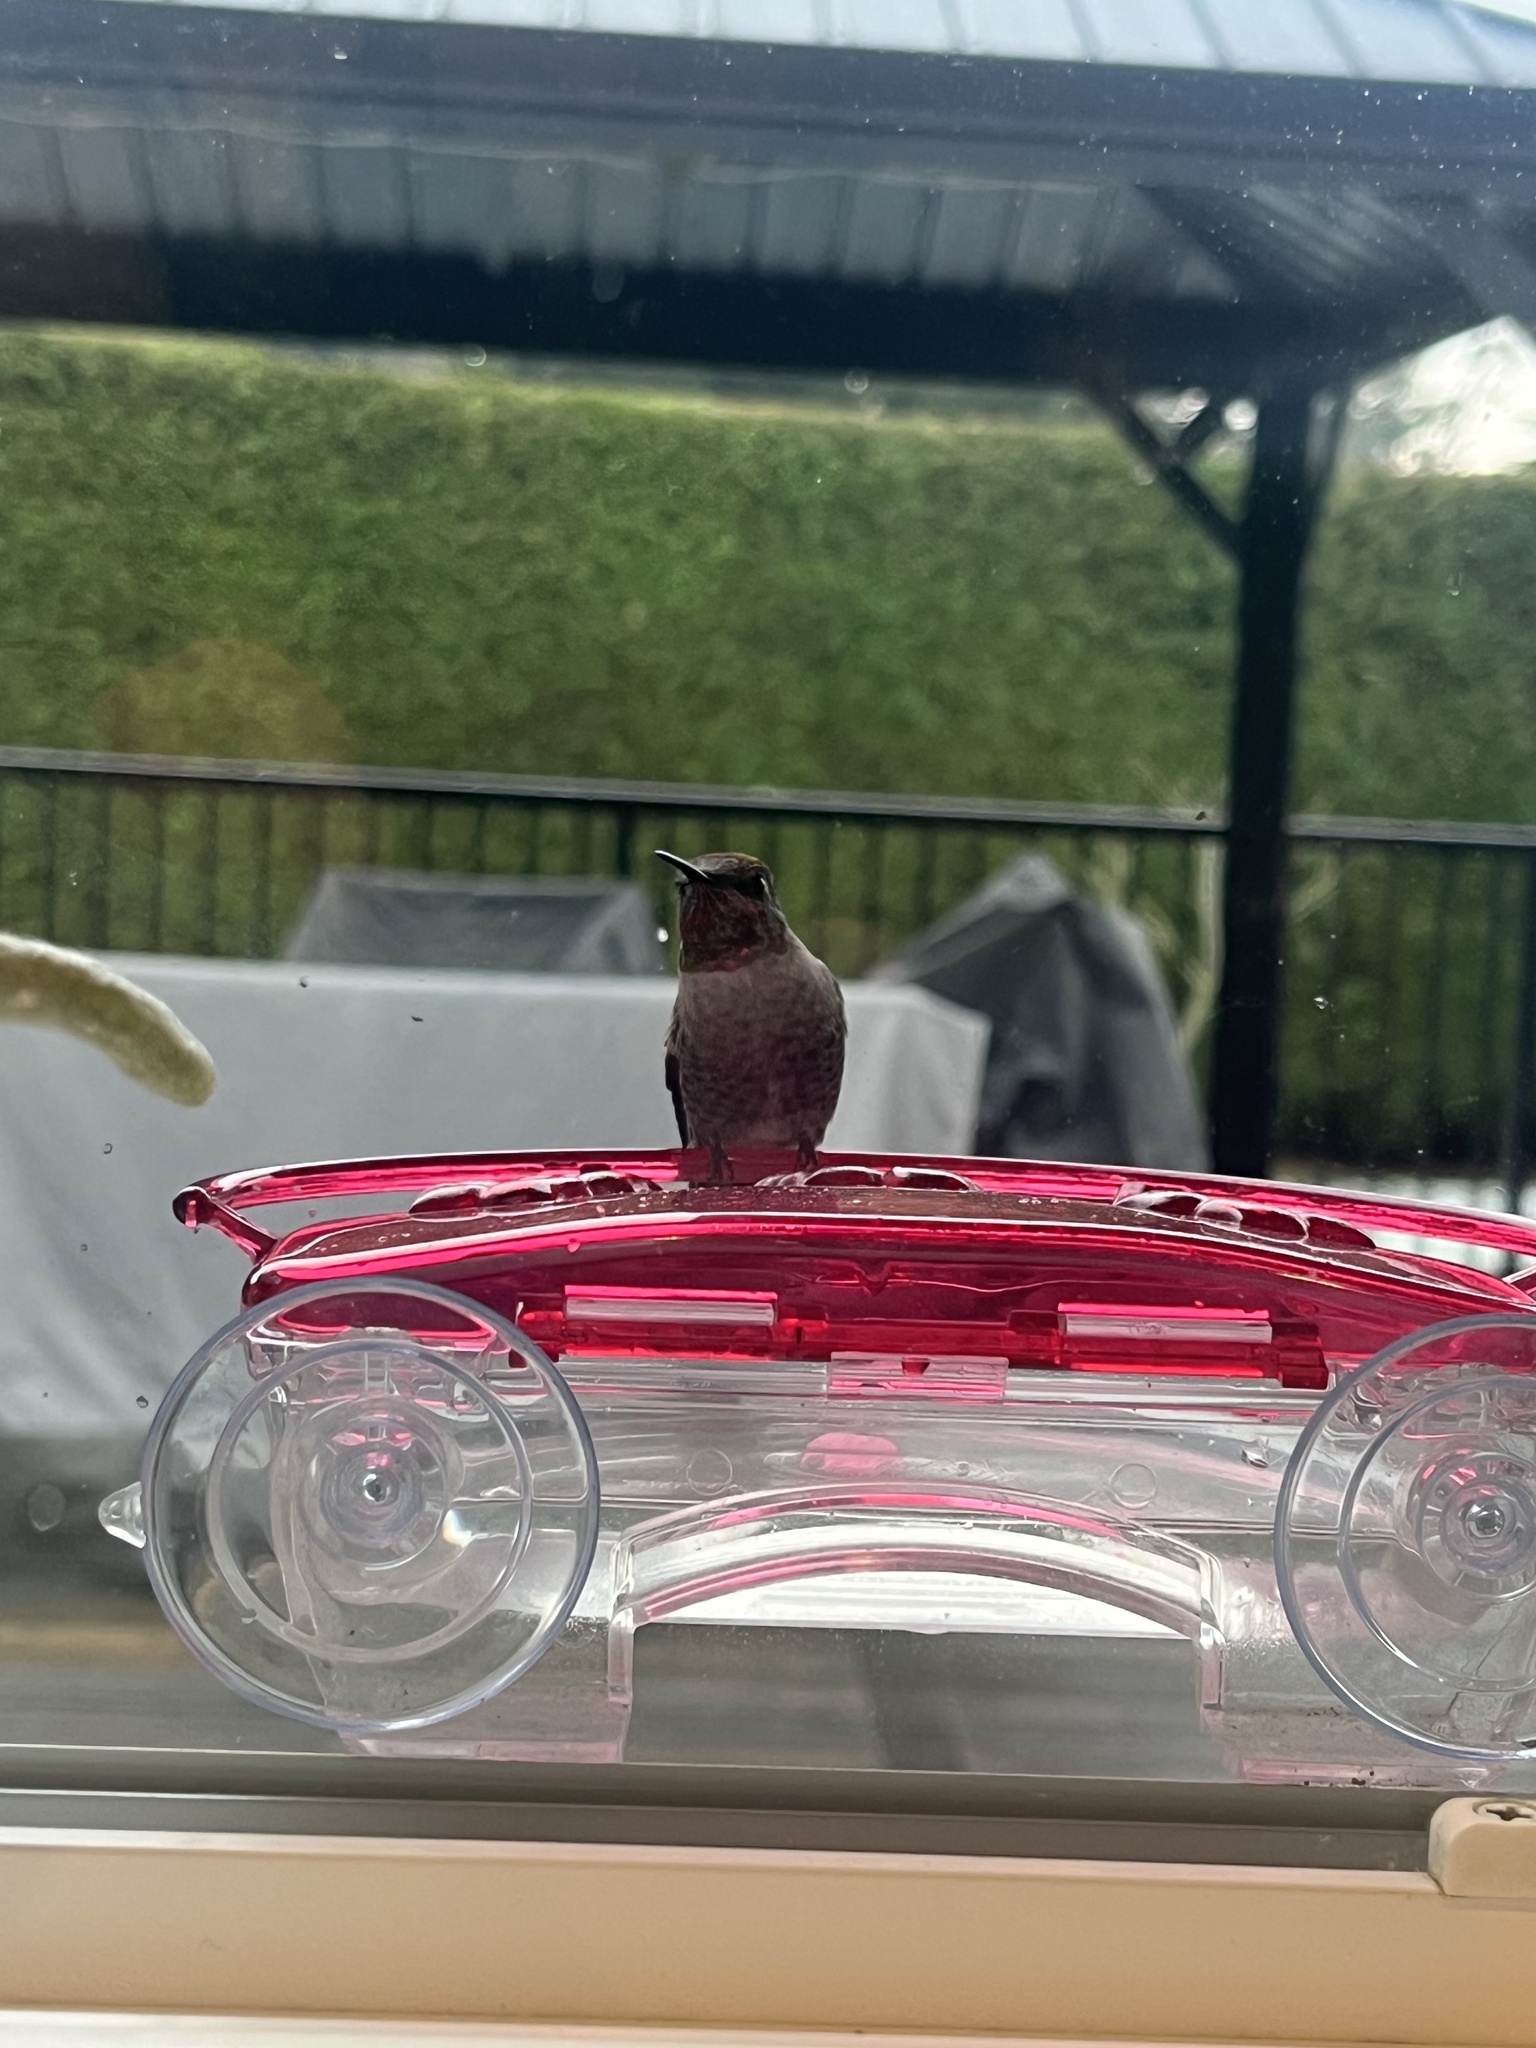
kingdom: Animalia
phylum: Chordata
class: Aves
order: Apodiformes
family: Trochilidae
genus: Calypte
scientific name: Calypte anna
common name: Anna's hummingbird
